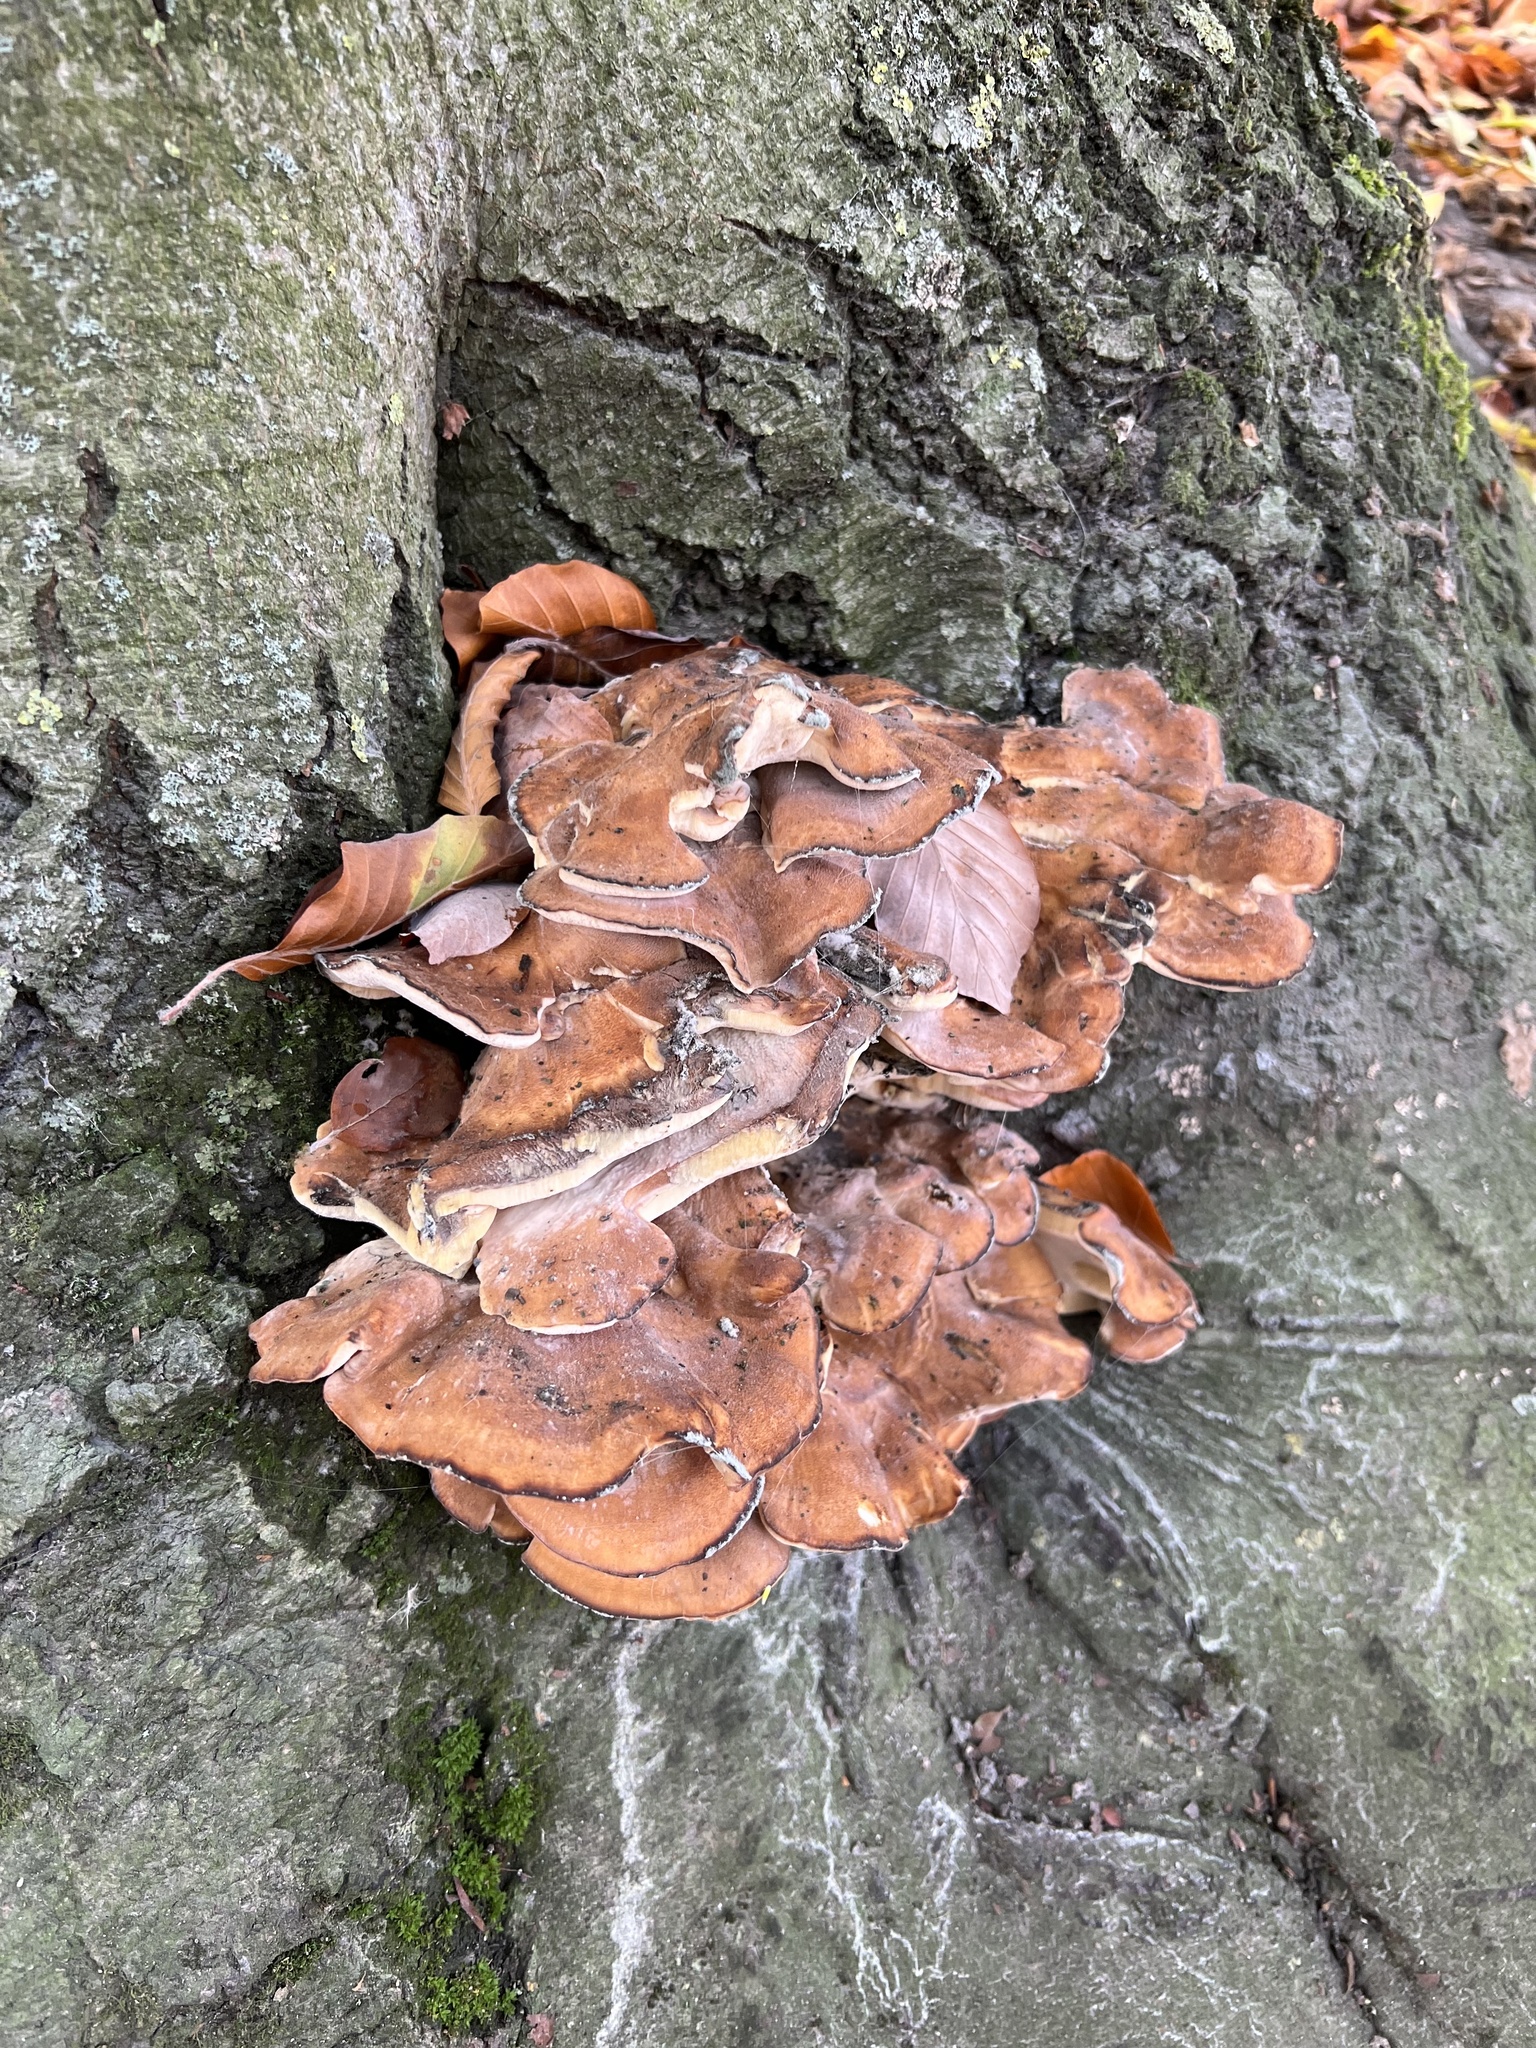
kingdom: Fungi
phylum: Basidiomycota
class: Agaricomycetes
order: Polyporales
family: Meripilaceae
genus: Meripilus
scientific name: Meripilus giganteus
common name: Giant polypore
